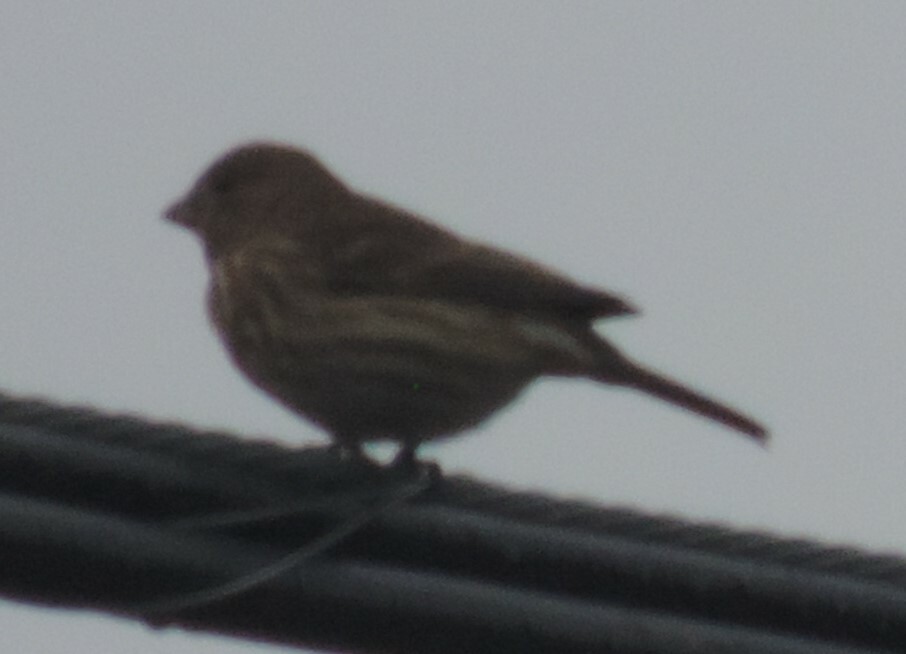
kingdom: Animalia
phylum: Chordata
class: Aves
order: Passeriformes
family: Fringillidae
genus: Haemorhous
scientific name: Haemorhous mexicanus
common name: House finch
